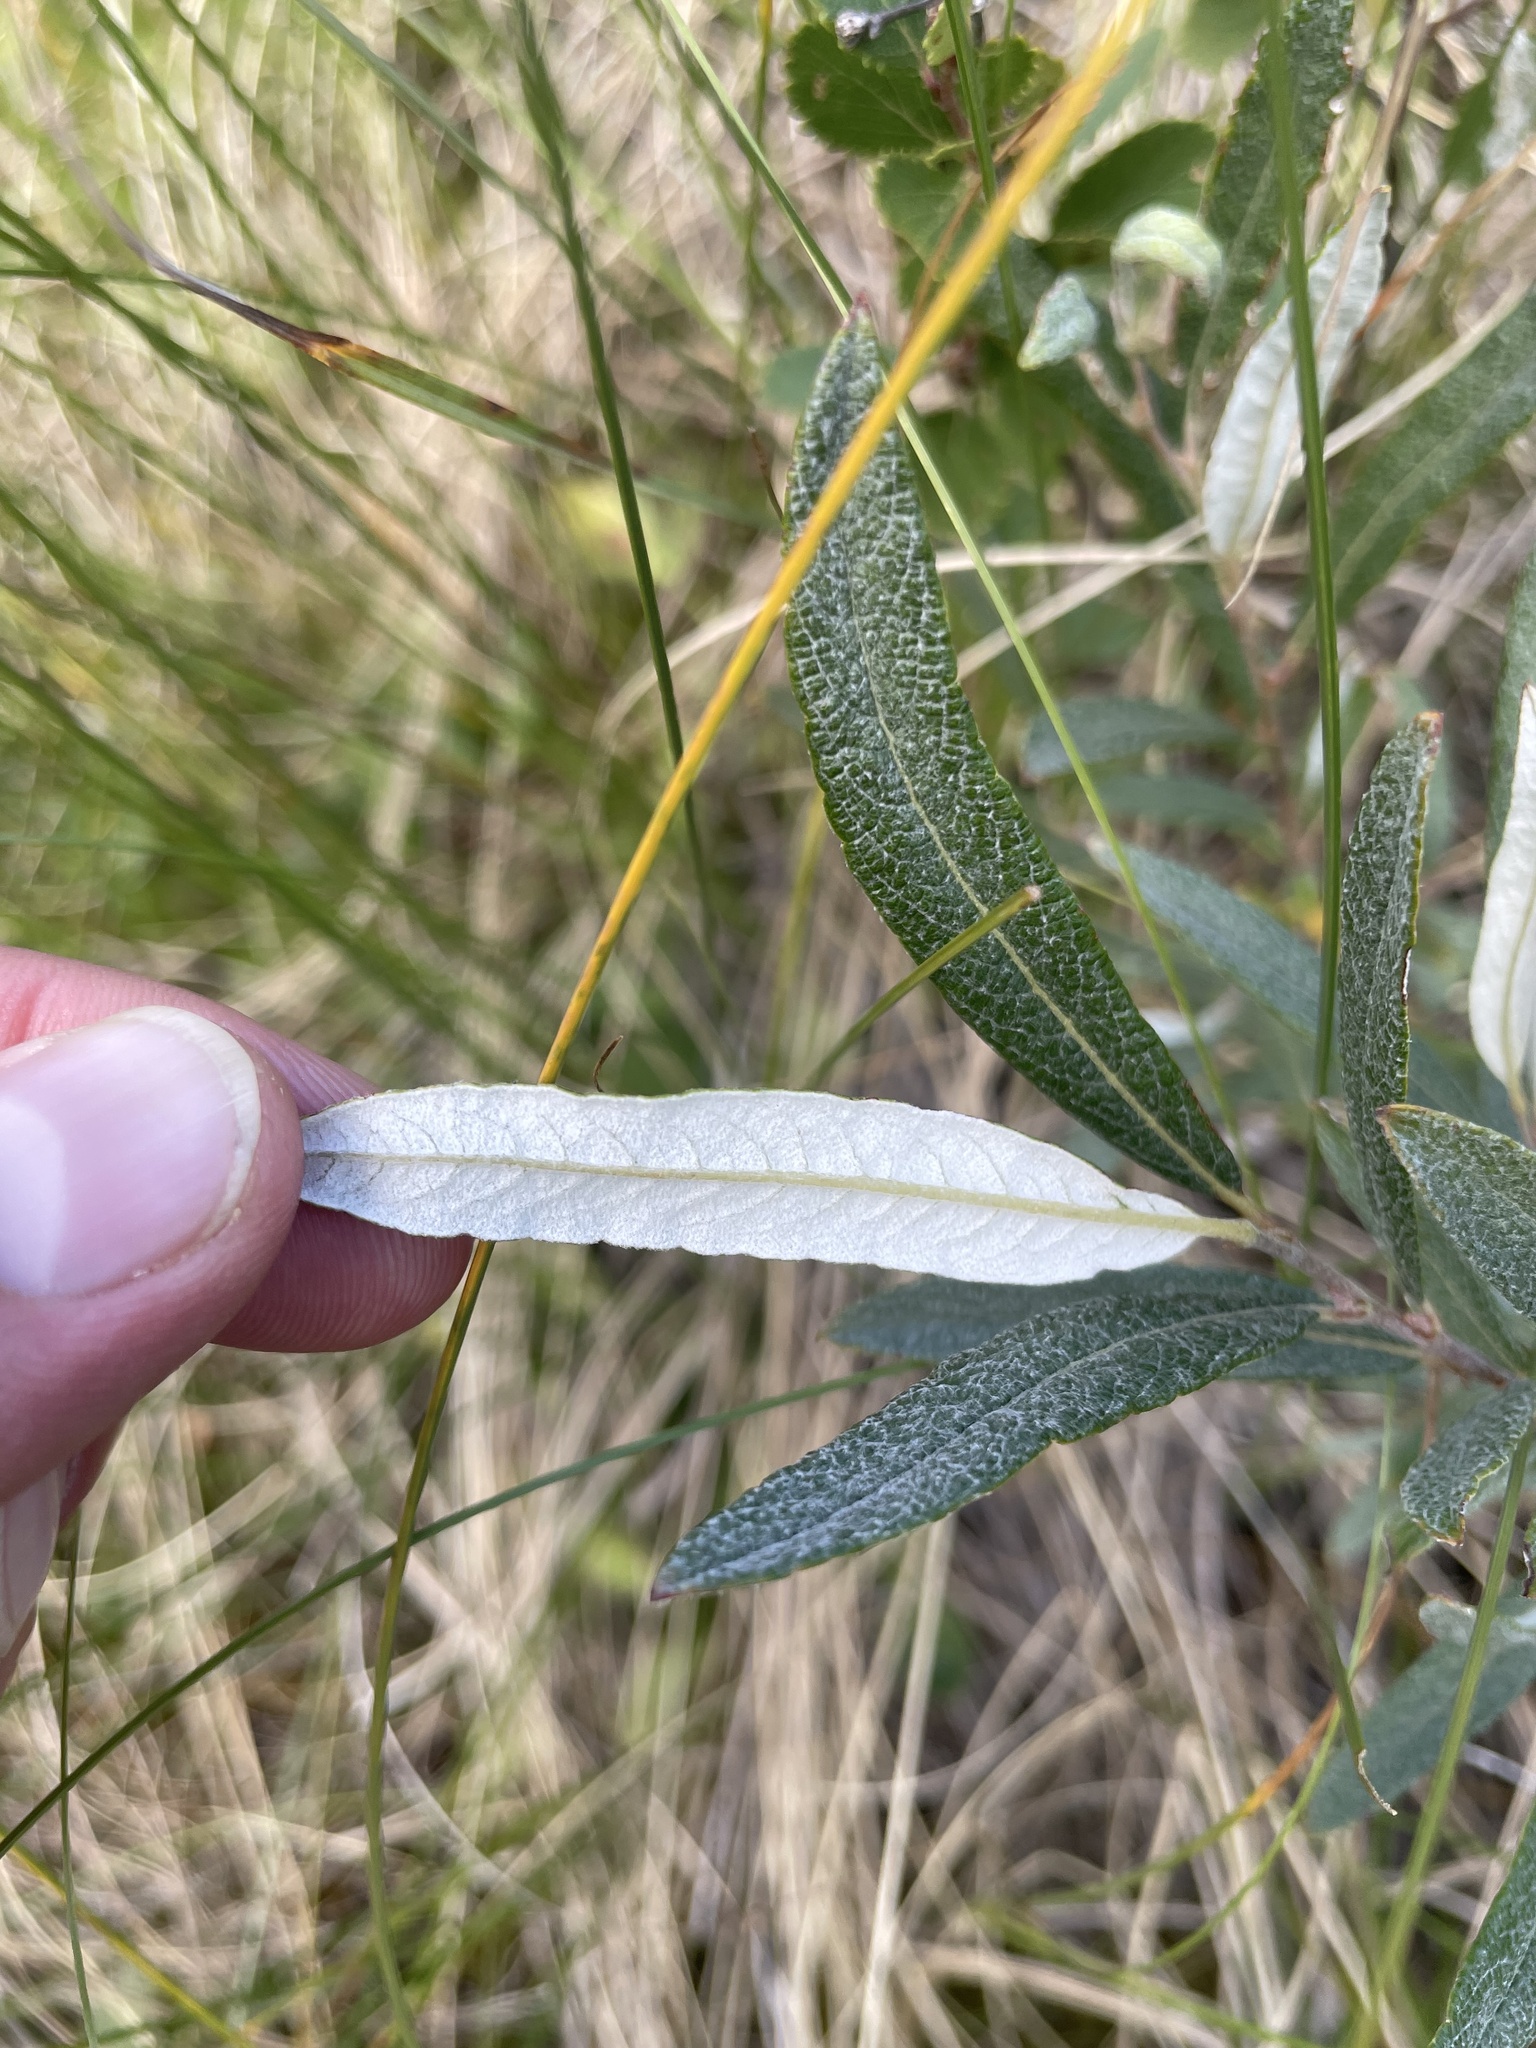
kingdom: Plantae
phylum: Tracheophyta
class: Magnoliopsida
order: Malpighiales
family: Salicaceae
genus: Salix
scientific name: Salix candida
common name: Hoary willow
